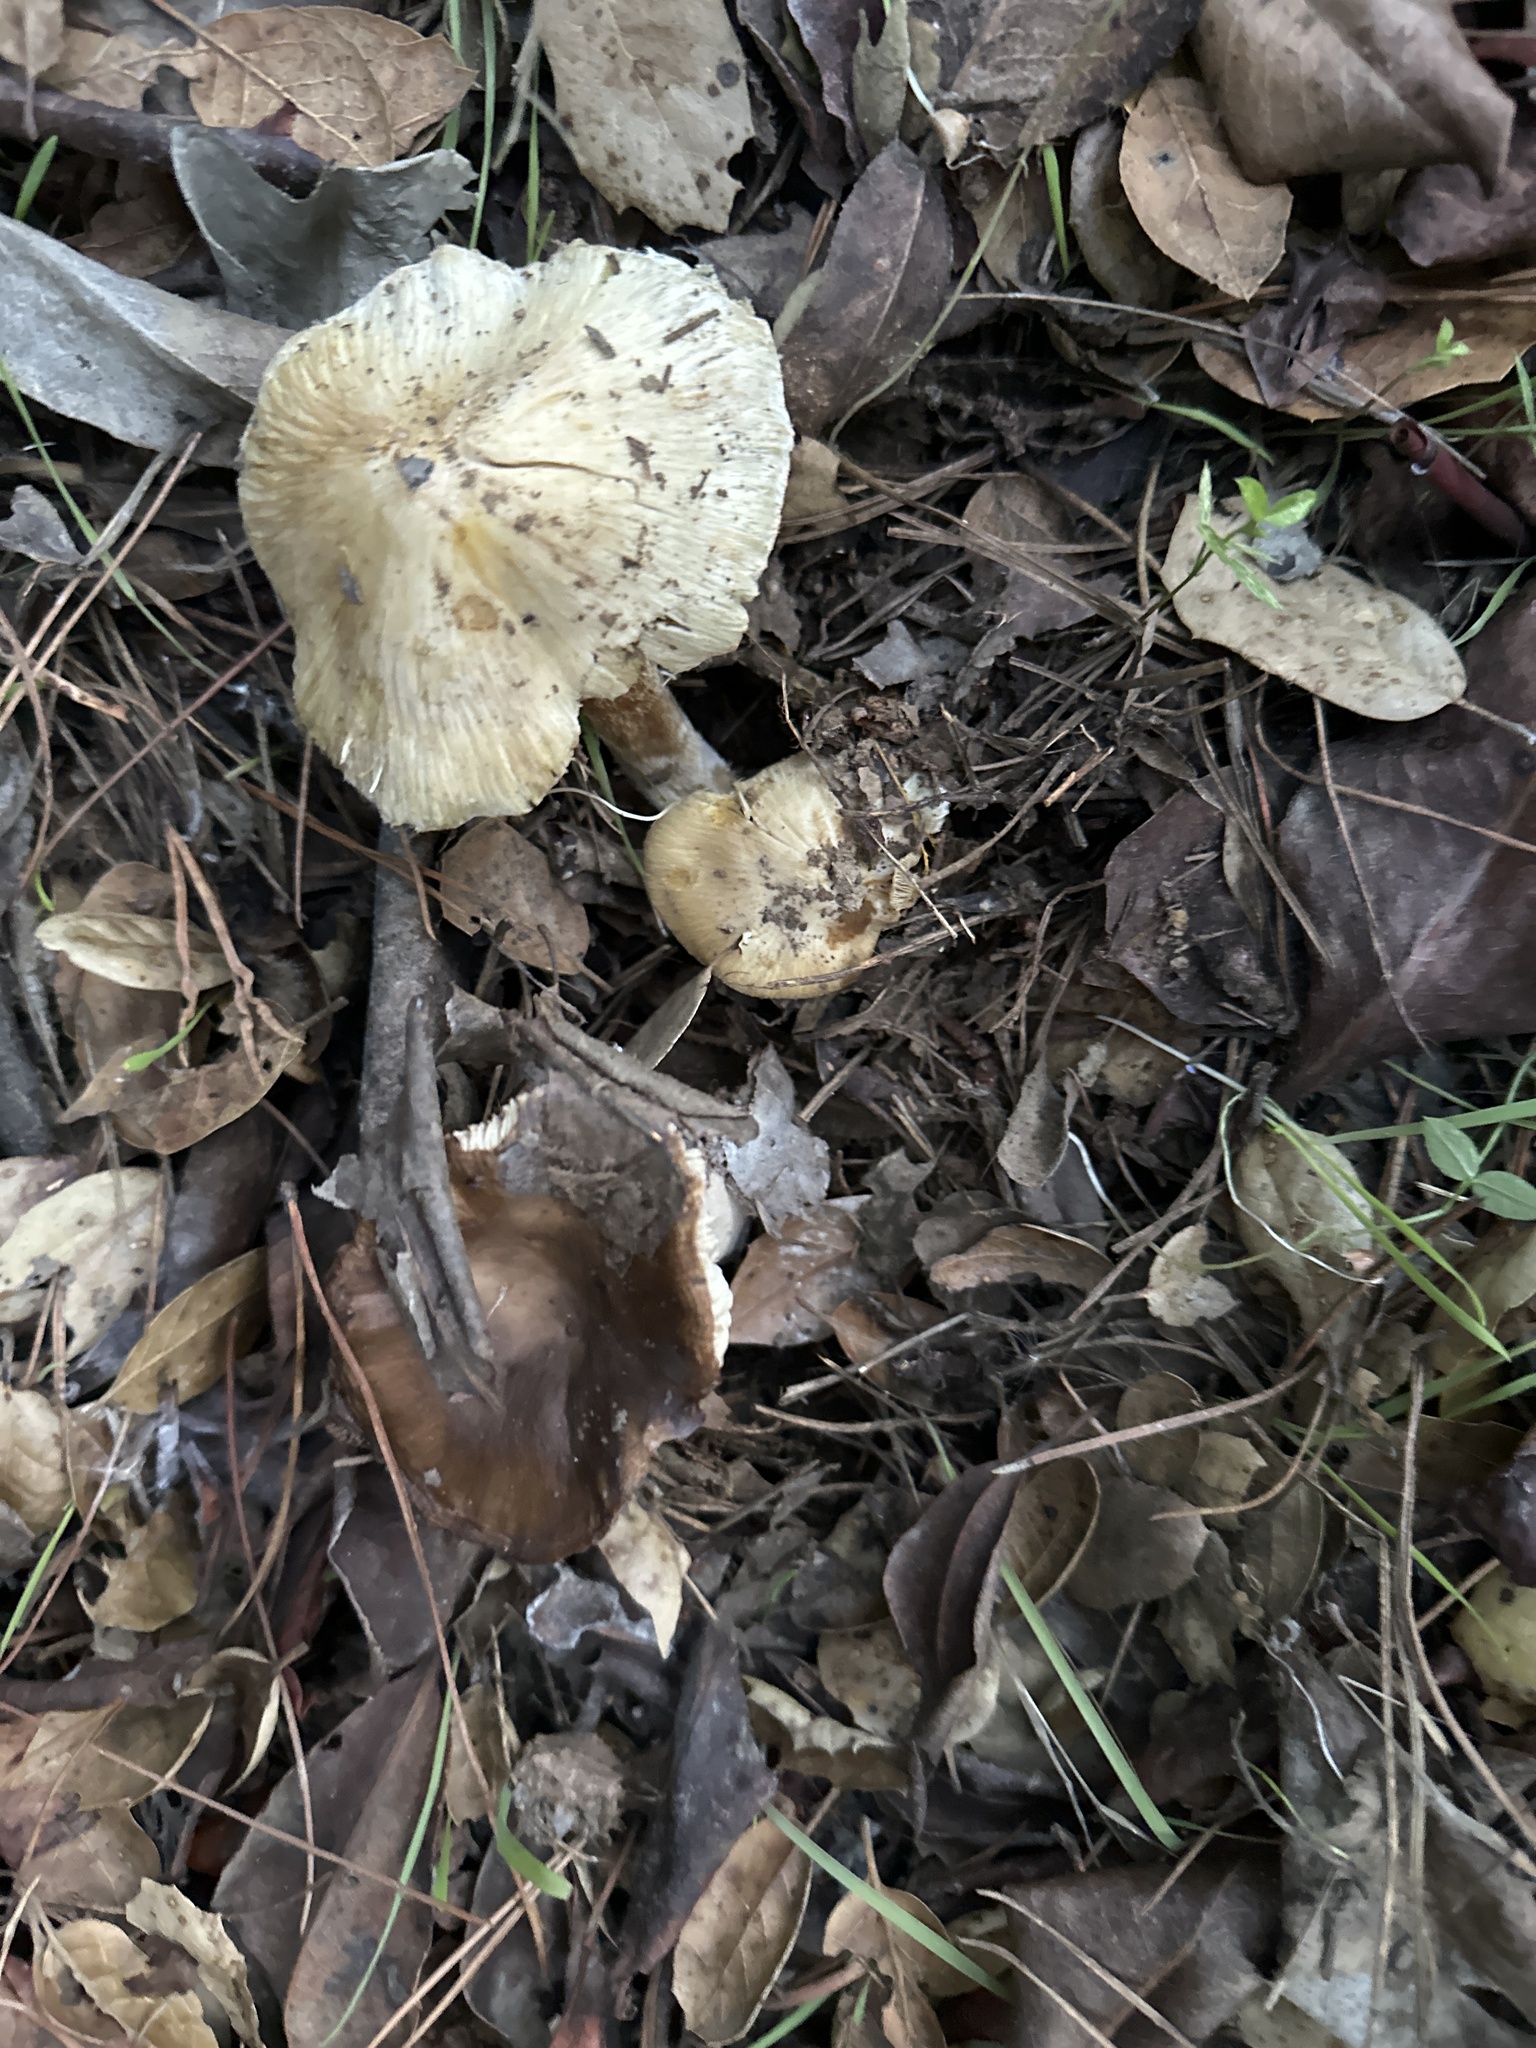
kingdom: Fungi
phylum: Basidiomycota
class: Agaricomycetes
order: Agaricales
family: Inocybaceae
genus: Pseudosperma
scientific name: Pseudosperma sororium
